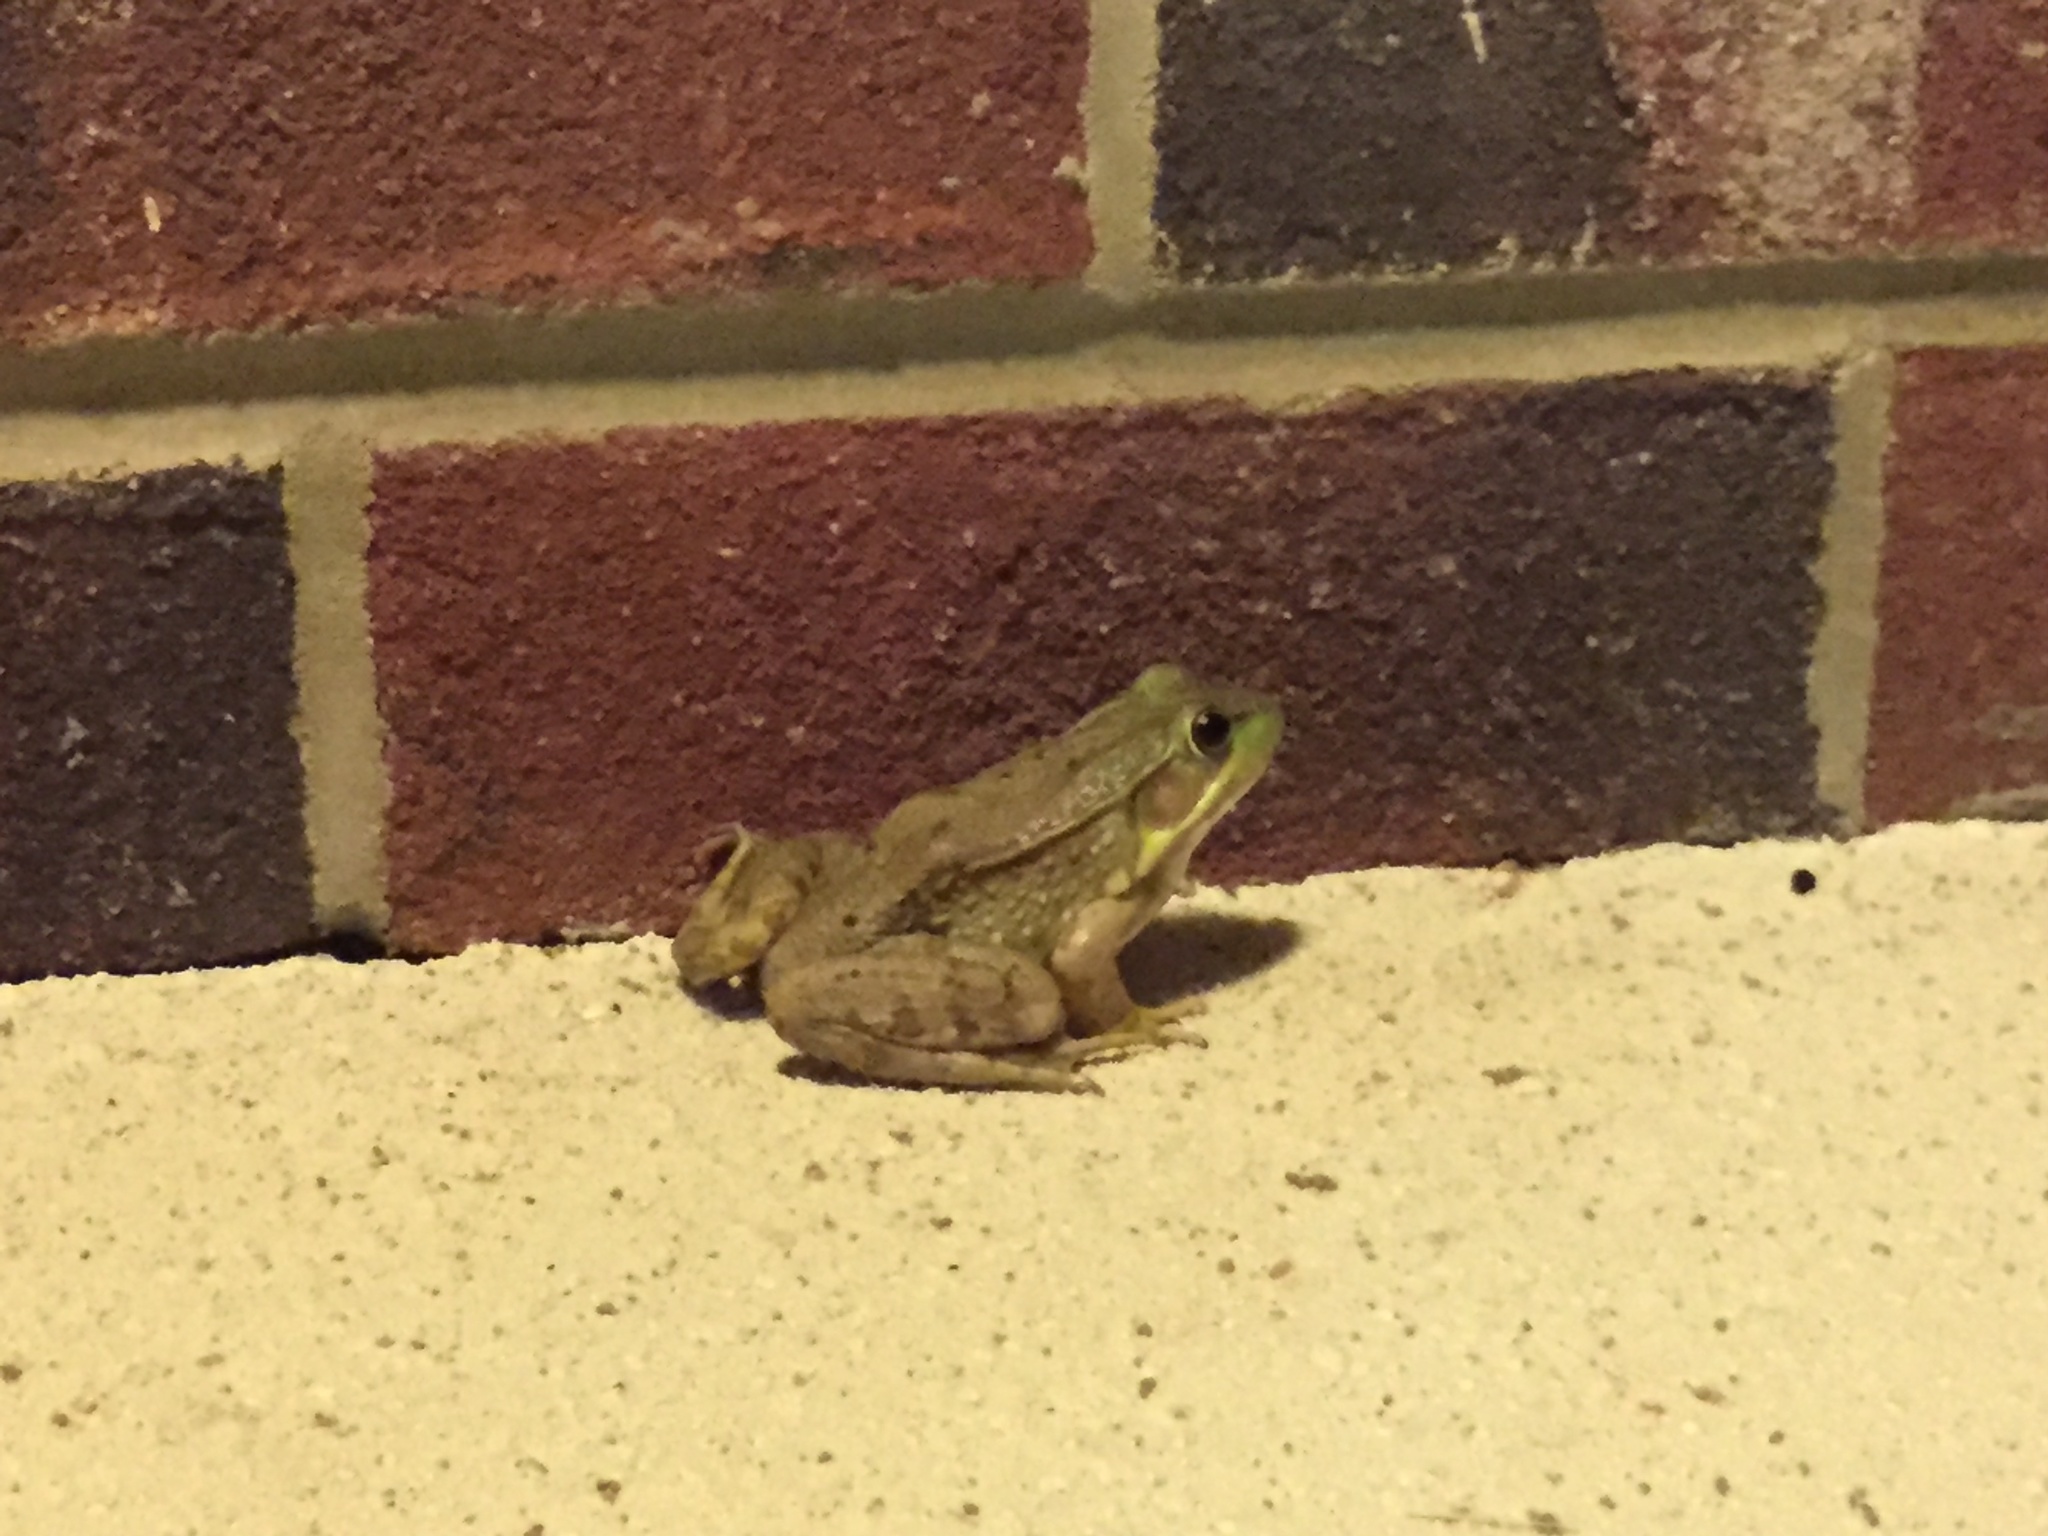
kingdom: Animalia
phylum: Chordata
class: Amphibia
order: Anura
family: Ranidae
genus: Lithobates
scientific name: Lithobates clamitans
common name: Green frog
